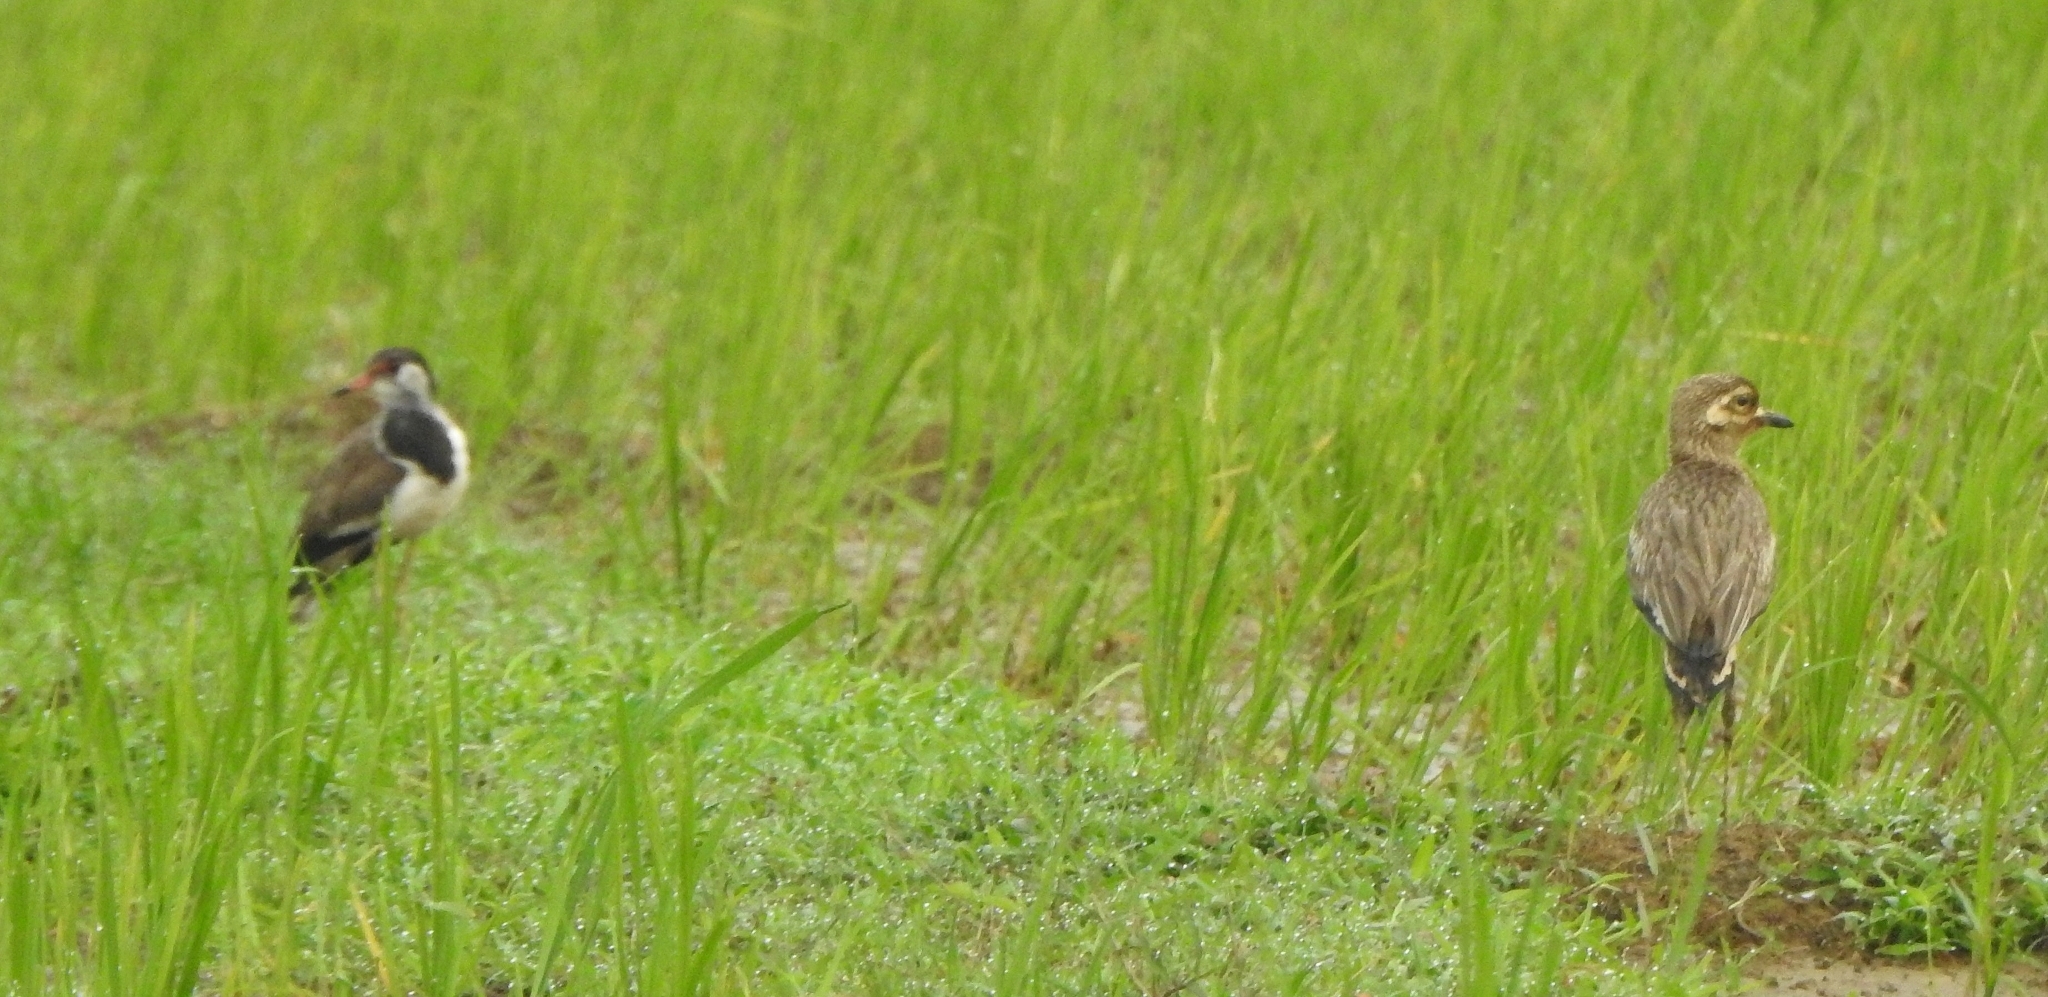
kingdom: Animalia
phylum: Chordata
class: Aves
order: Charadriiformes
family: Charadriidae
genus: Vanellus
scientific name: Vanellus indicus
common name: Red-wattled lapwing
